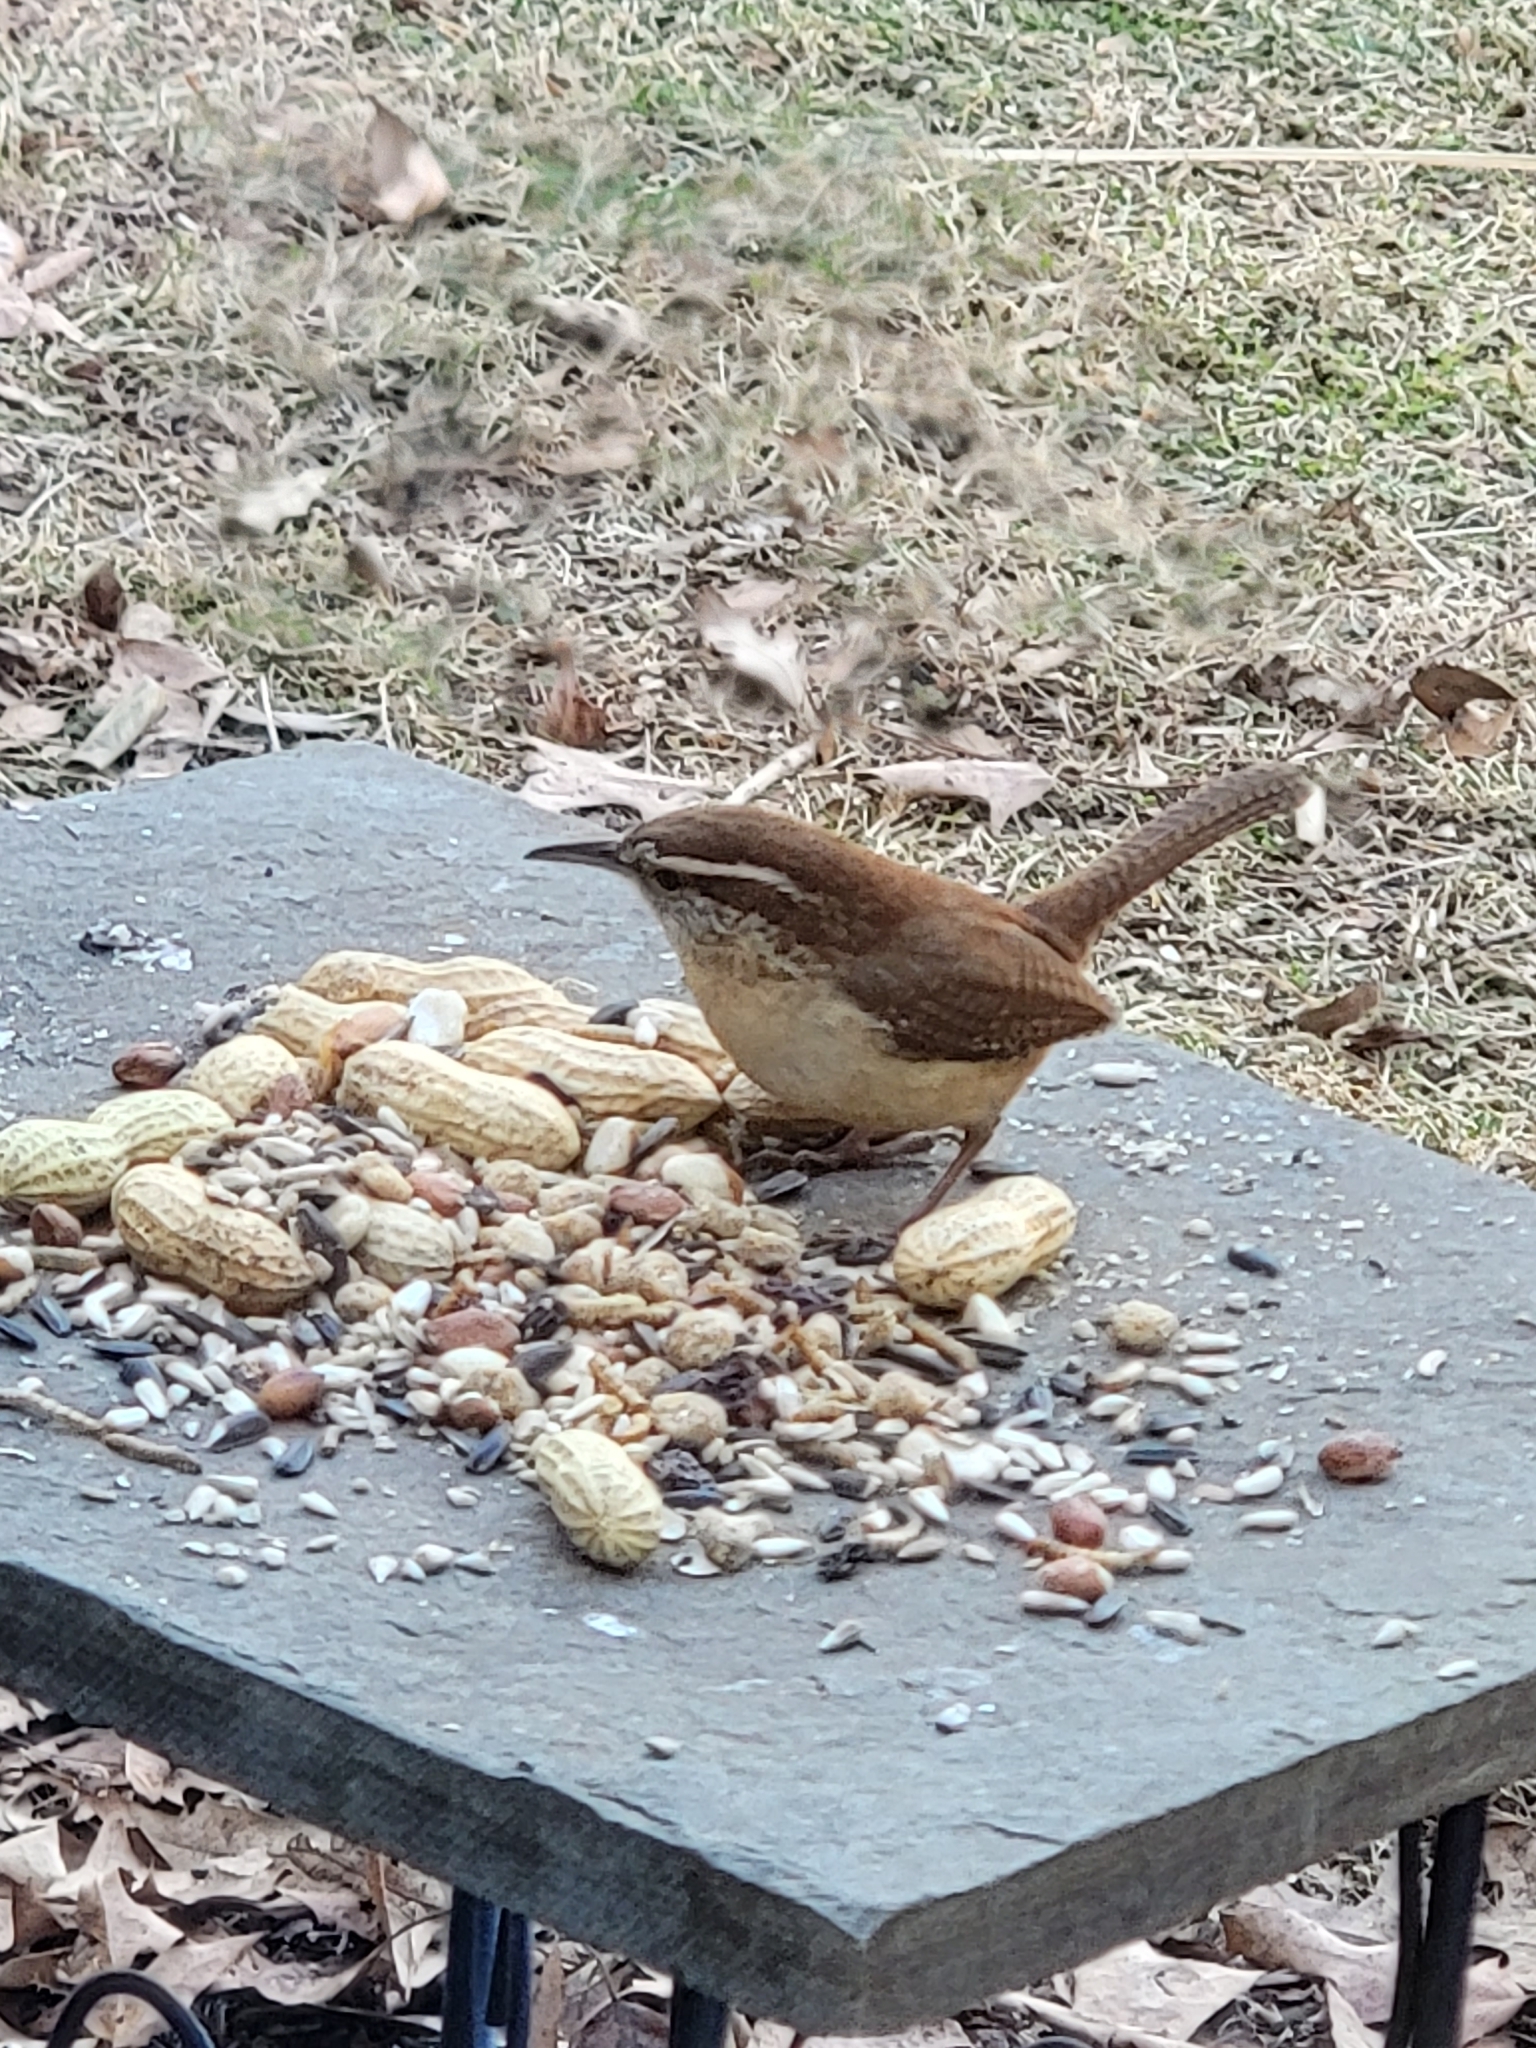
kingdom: Animalia
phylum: Chordata
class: Aves
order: Passeriformes
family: Troglodytidae
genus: Thryothorus
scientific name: Thryothorus ludovicianus
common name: Carolina wren
